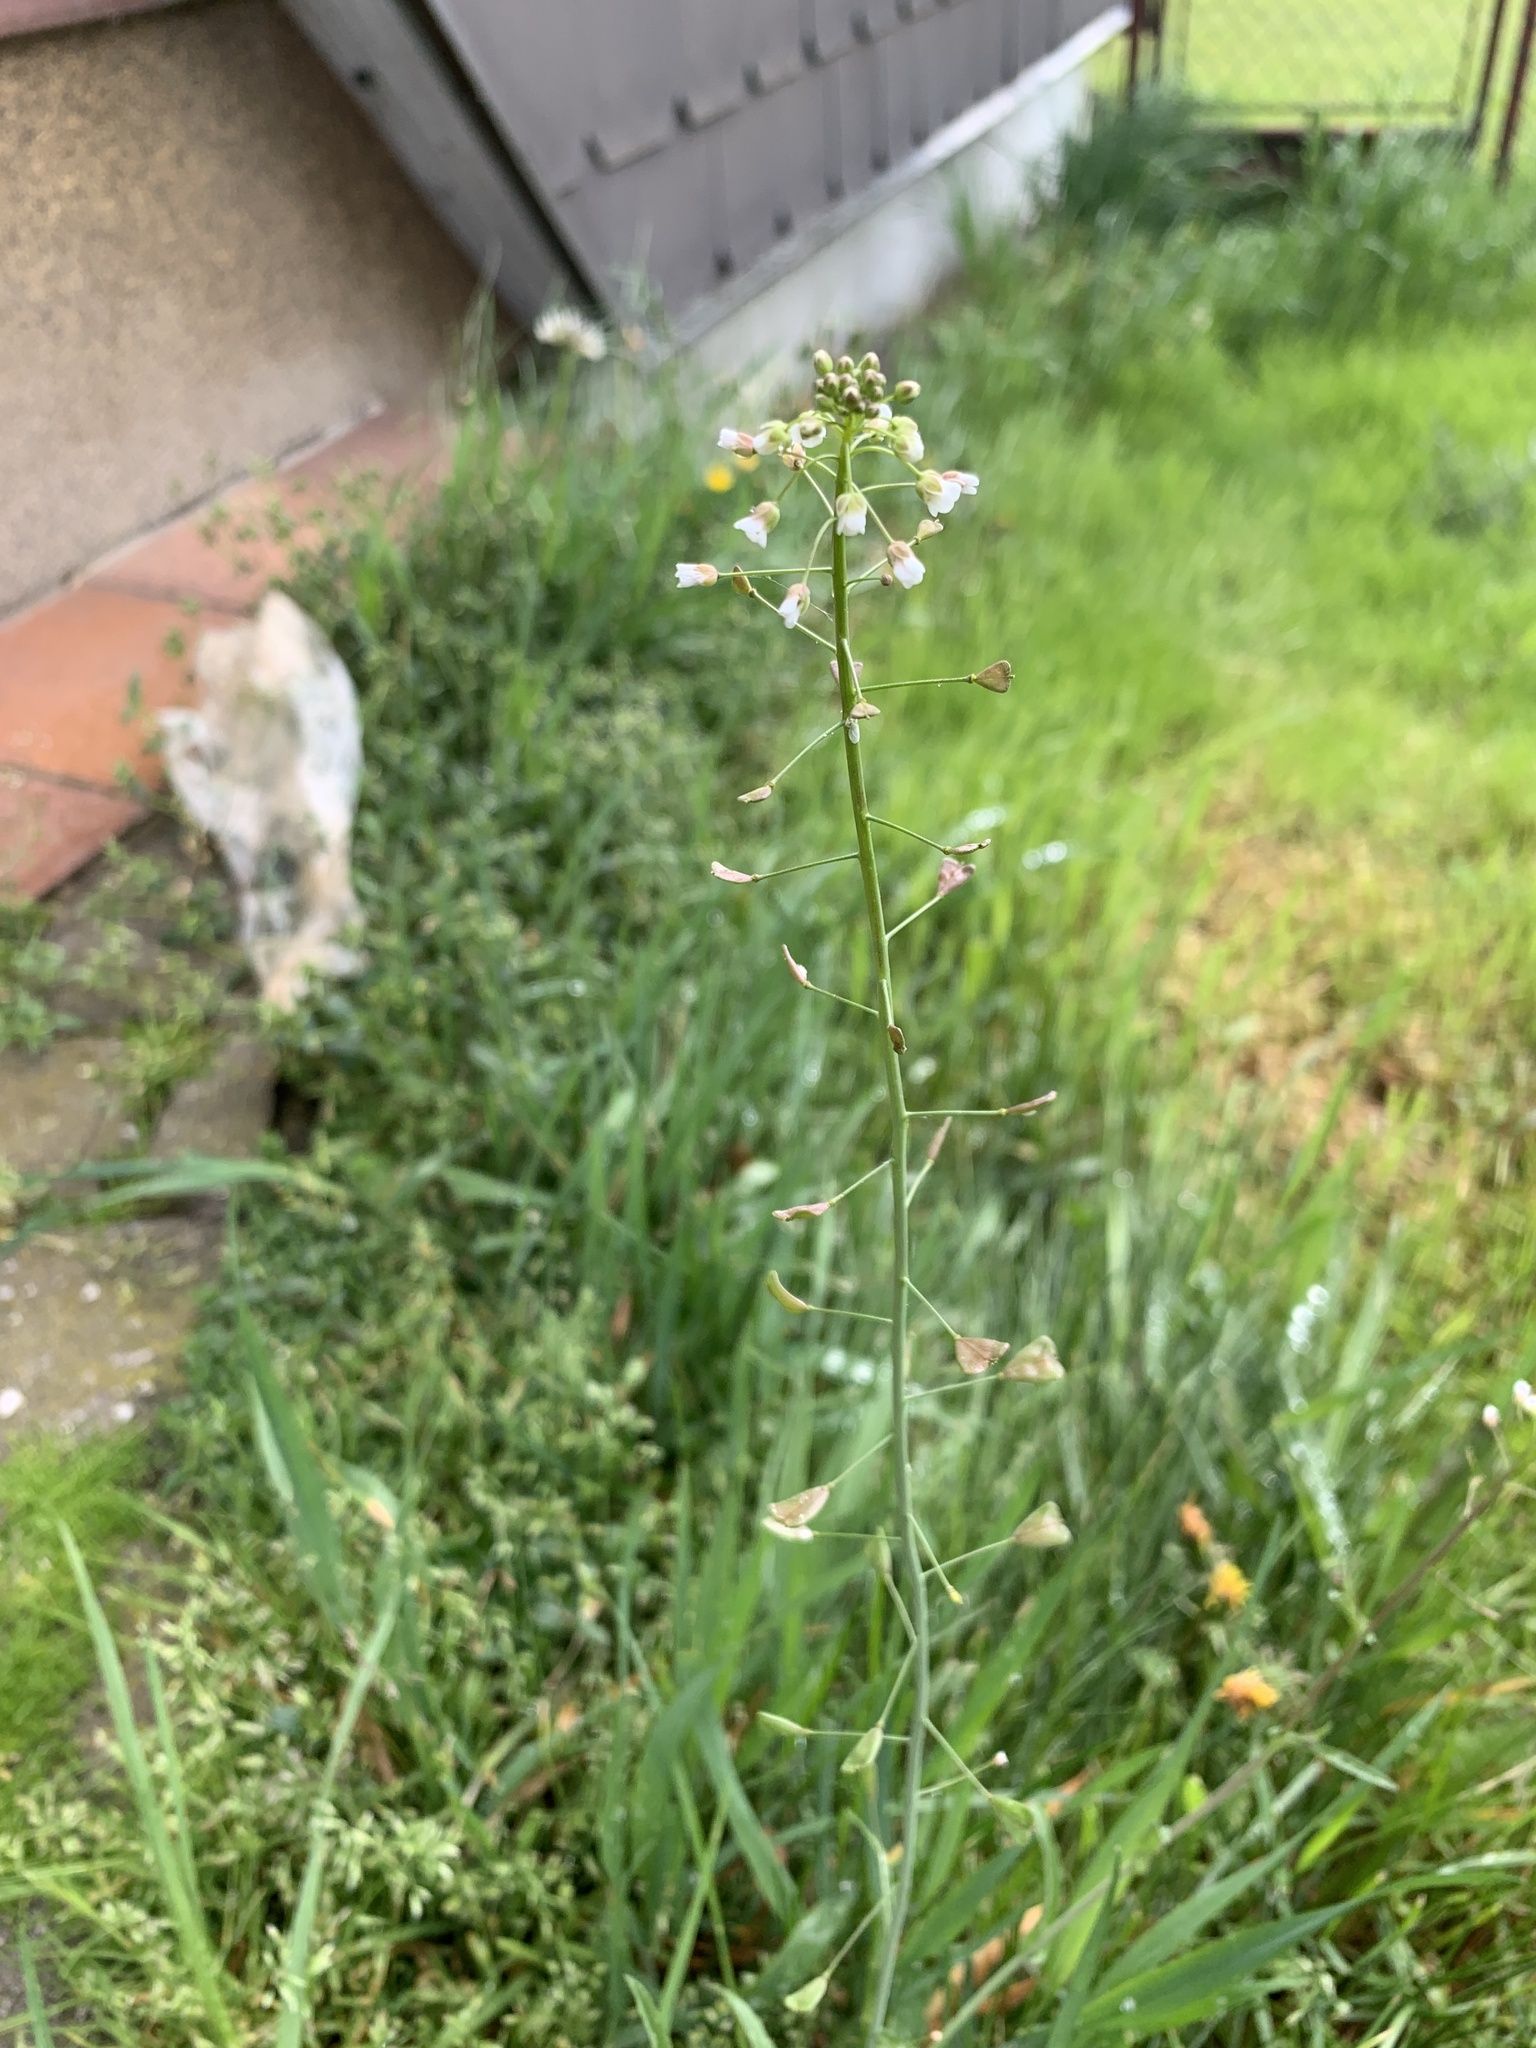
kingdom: Plantae
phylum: Tracheophyta
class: Magnoliopsida
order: Brassicales
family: Brassicaceae
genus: Capsella
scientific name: Capsella bursa-pastoris
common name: Shepherd's purse
